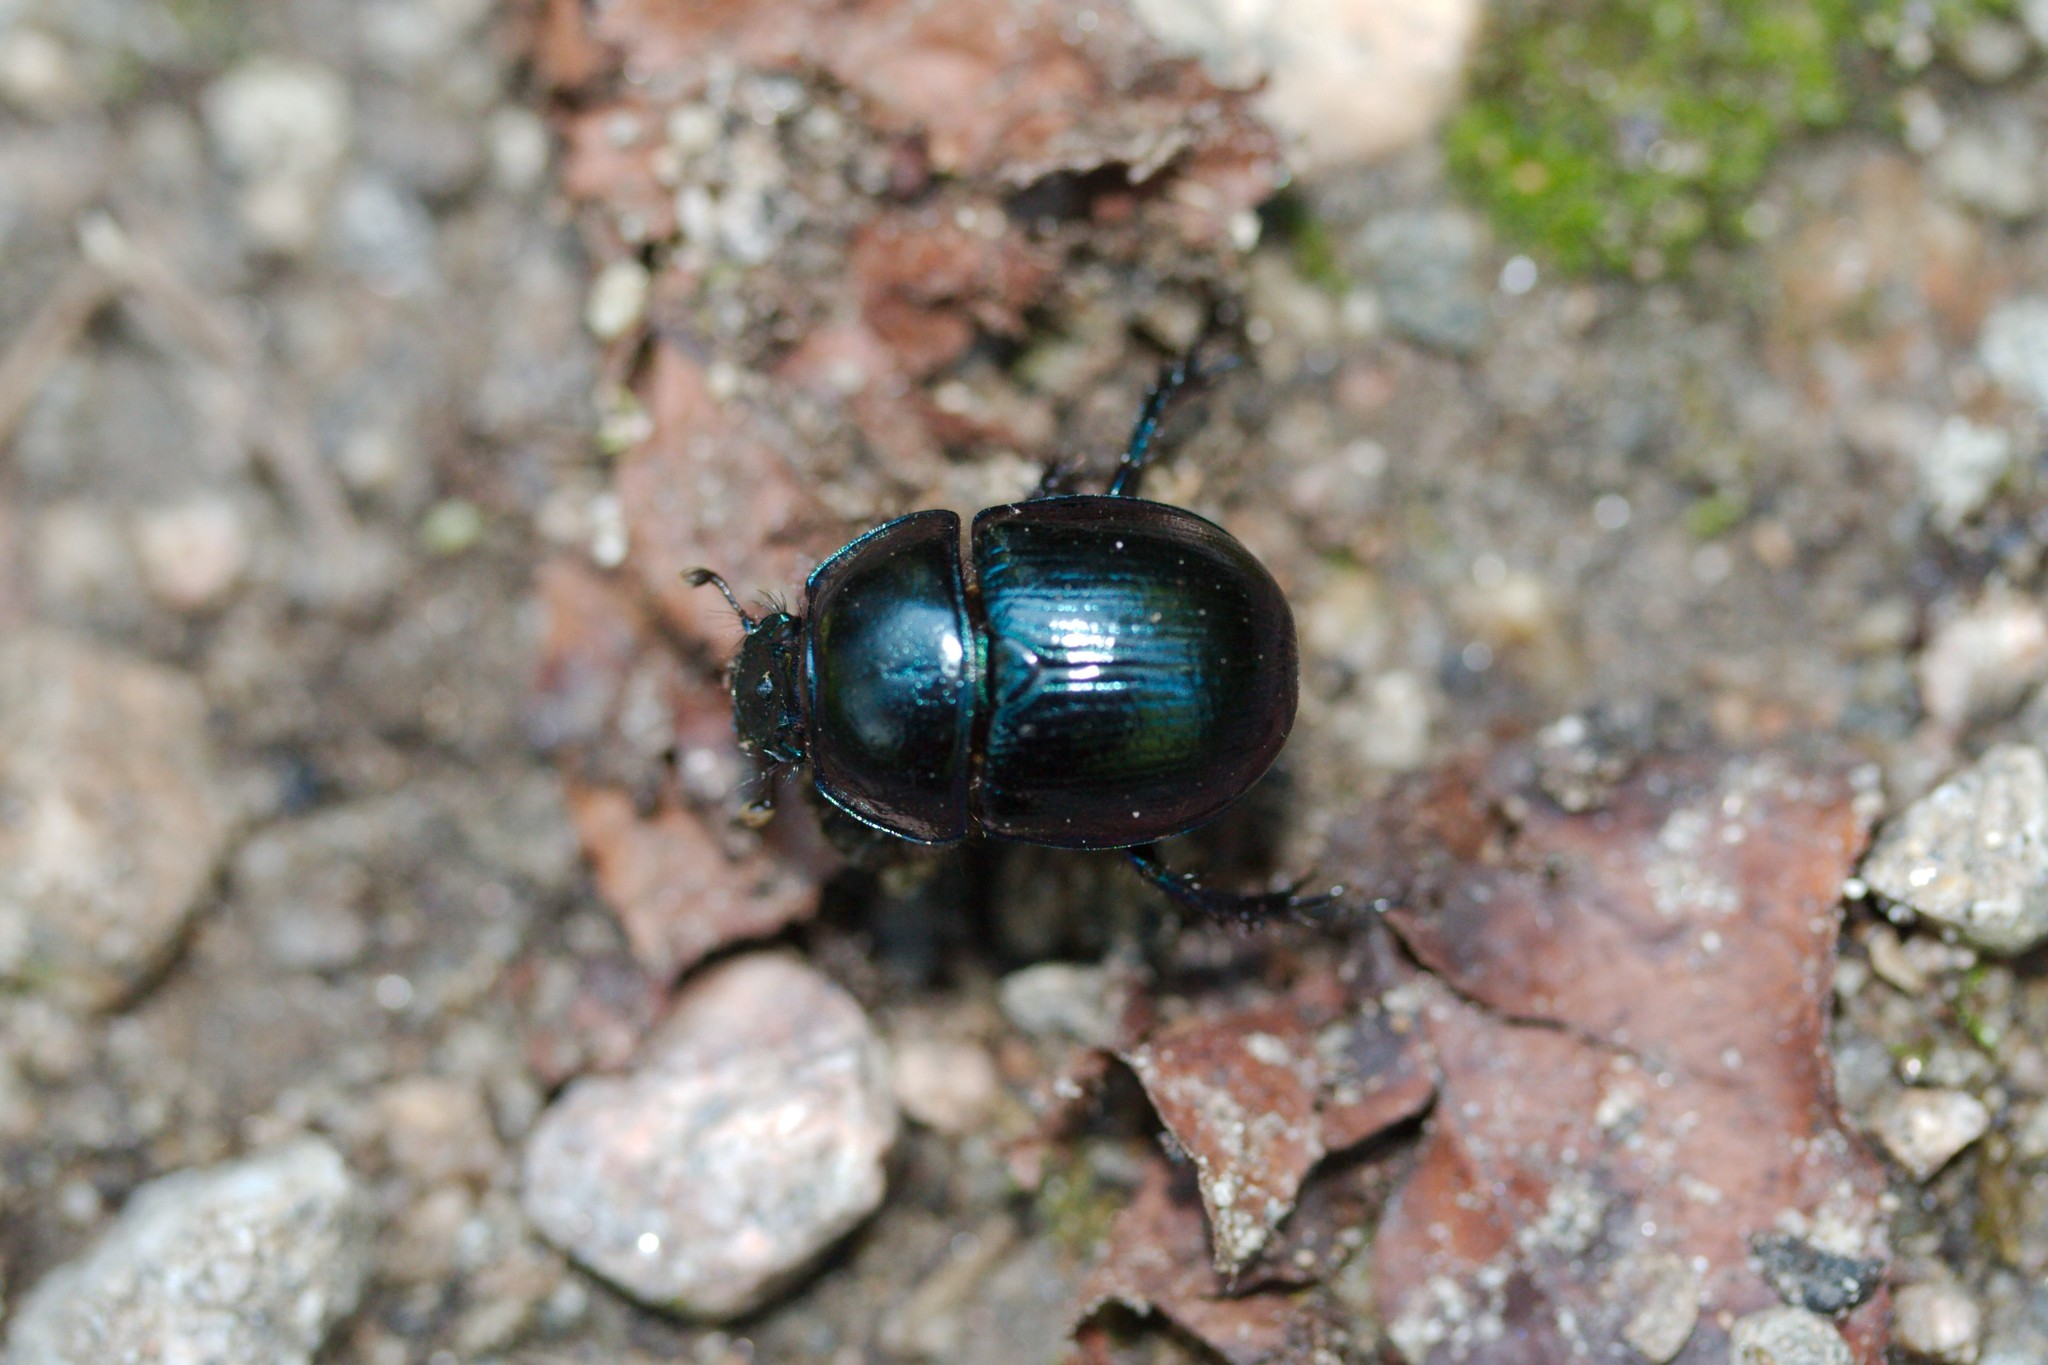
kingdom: Animalia
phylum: Arthropoda
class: Insecta
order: Coleoptera
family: Geotrupidae
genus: Anoplotrupes
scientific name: Anoplotrupes stercorosus
